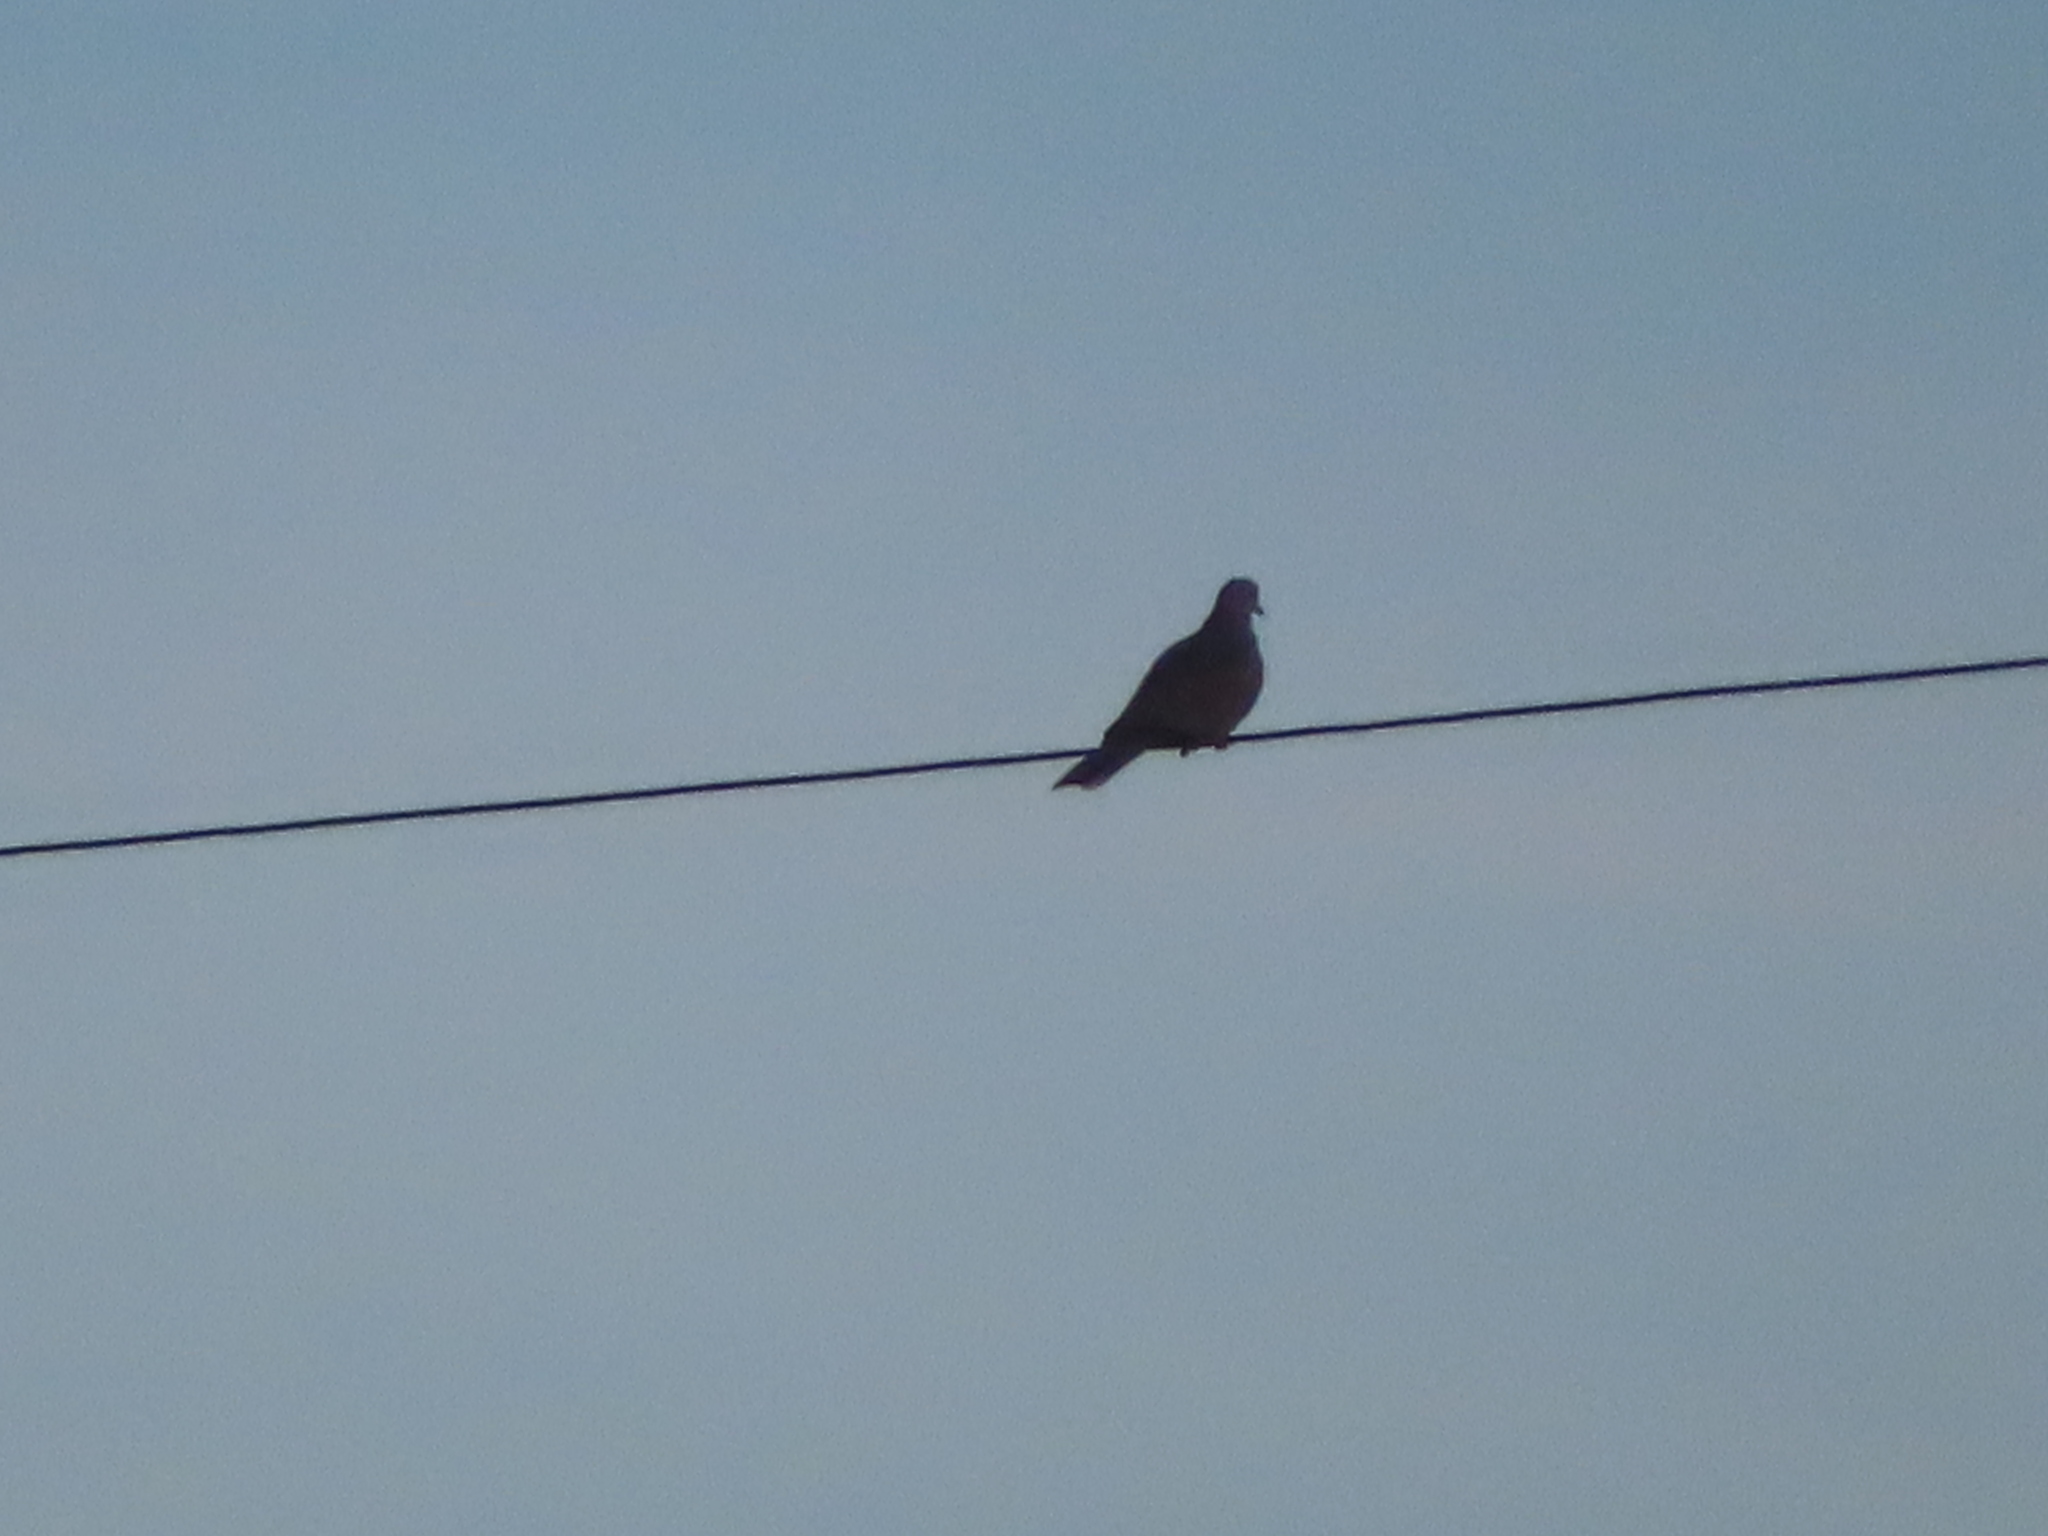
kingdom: Animalia
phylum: Chordata
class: Aves
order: Columbiformes
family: Columbidae
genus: Streptopelia
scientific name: Streptopelia decaocto
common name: Eurasian collared dove
